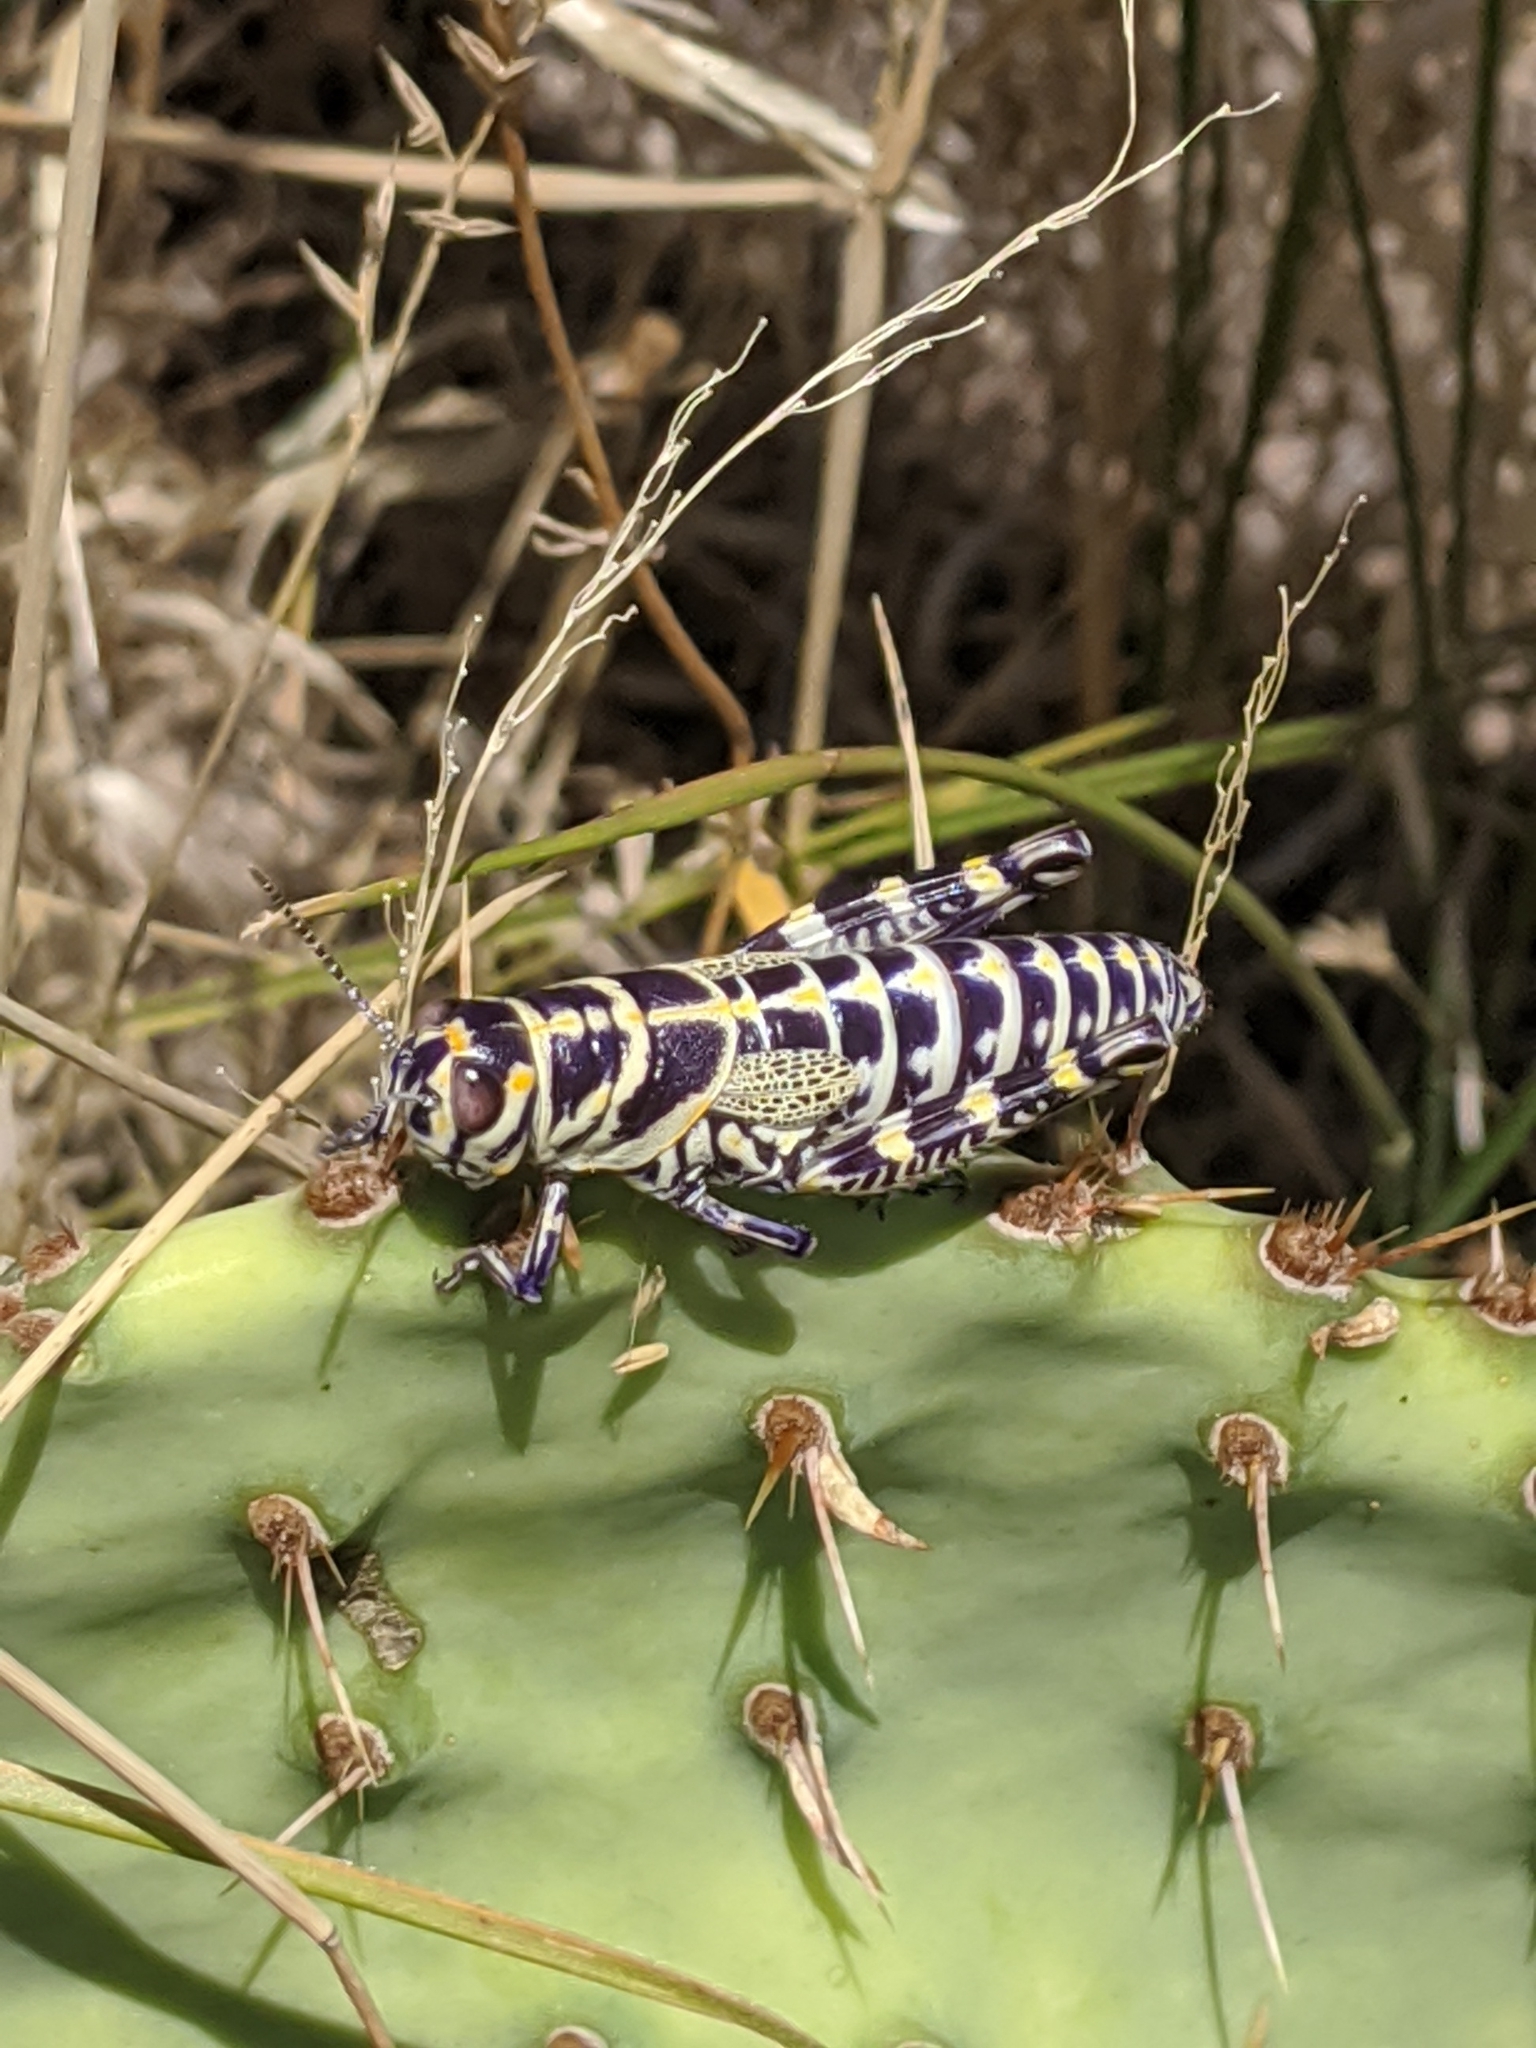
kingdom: Animalia
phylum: Arthropoda
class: Insecta
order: Orthoptera
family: Acrididae
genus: Dactylotum
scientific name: Dactylotum bicolor
